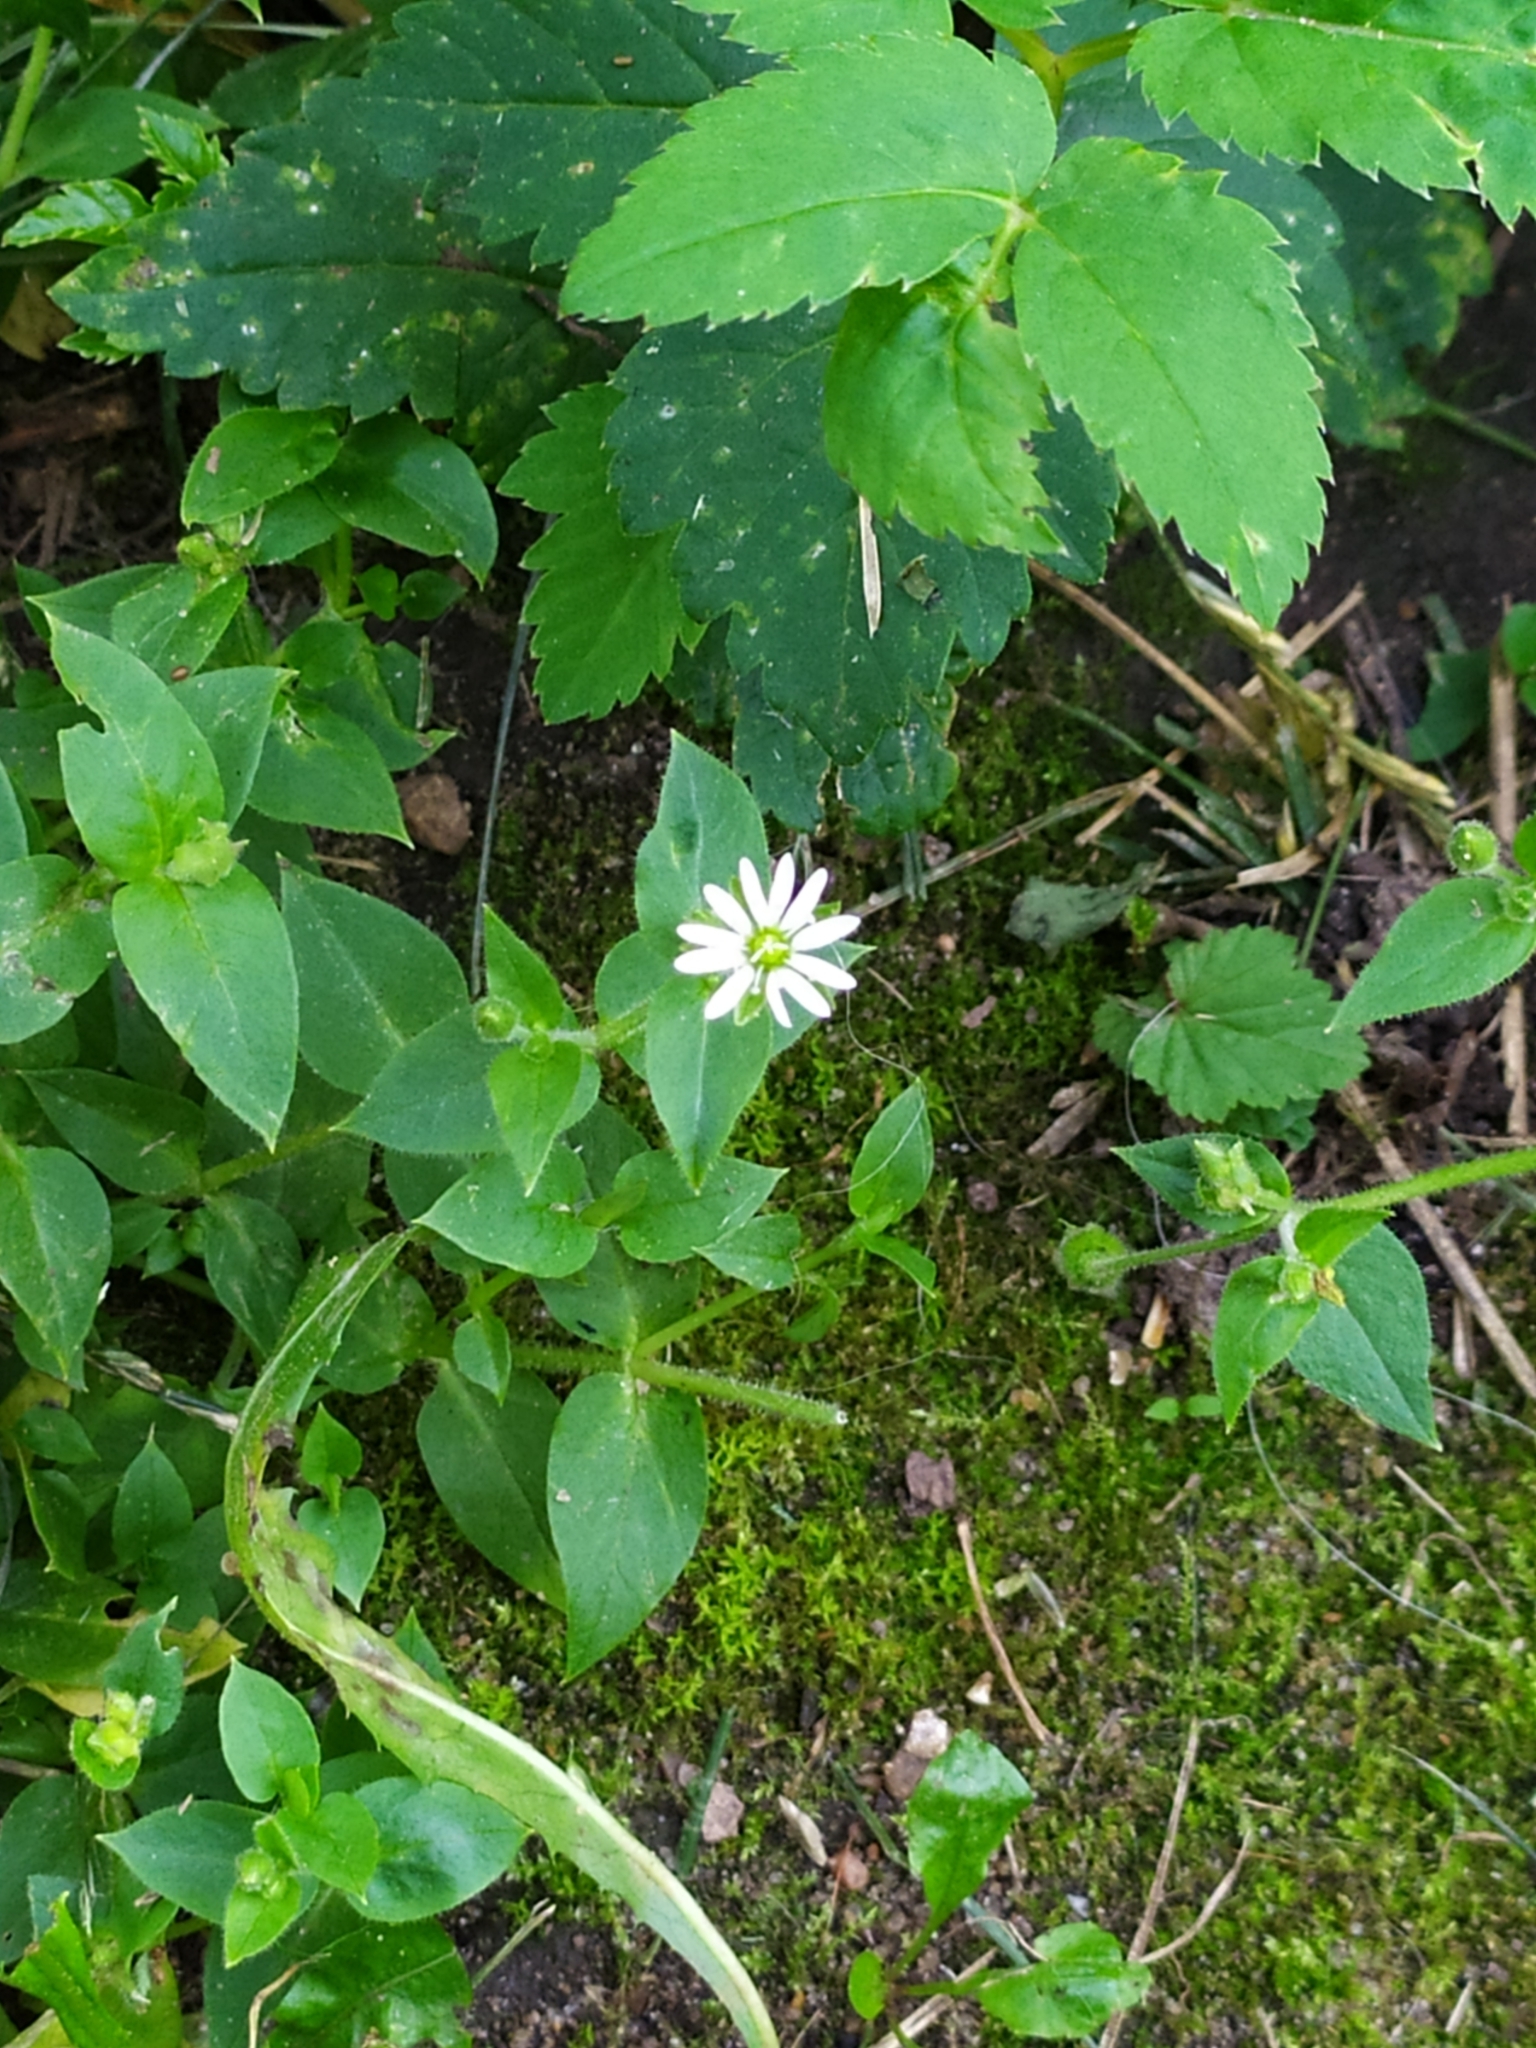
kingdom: Plantae
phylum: Tracheophyta
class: Magnoliopsida
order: Caryophyllales
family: Caryophyllaceae
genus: Stellaria
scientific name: Stellaria aquatica
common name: Water chickweed
